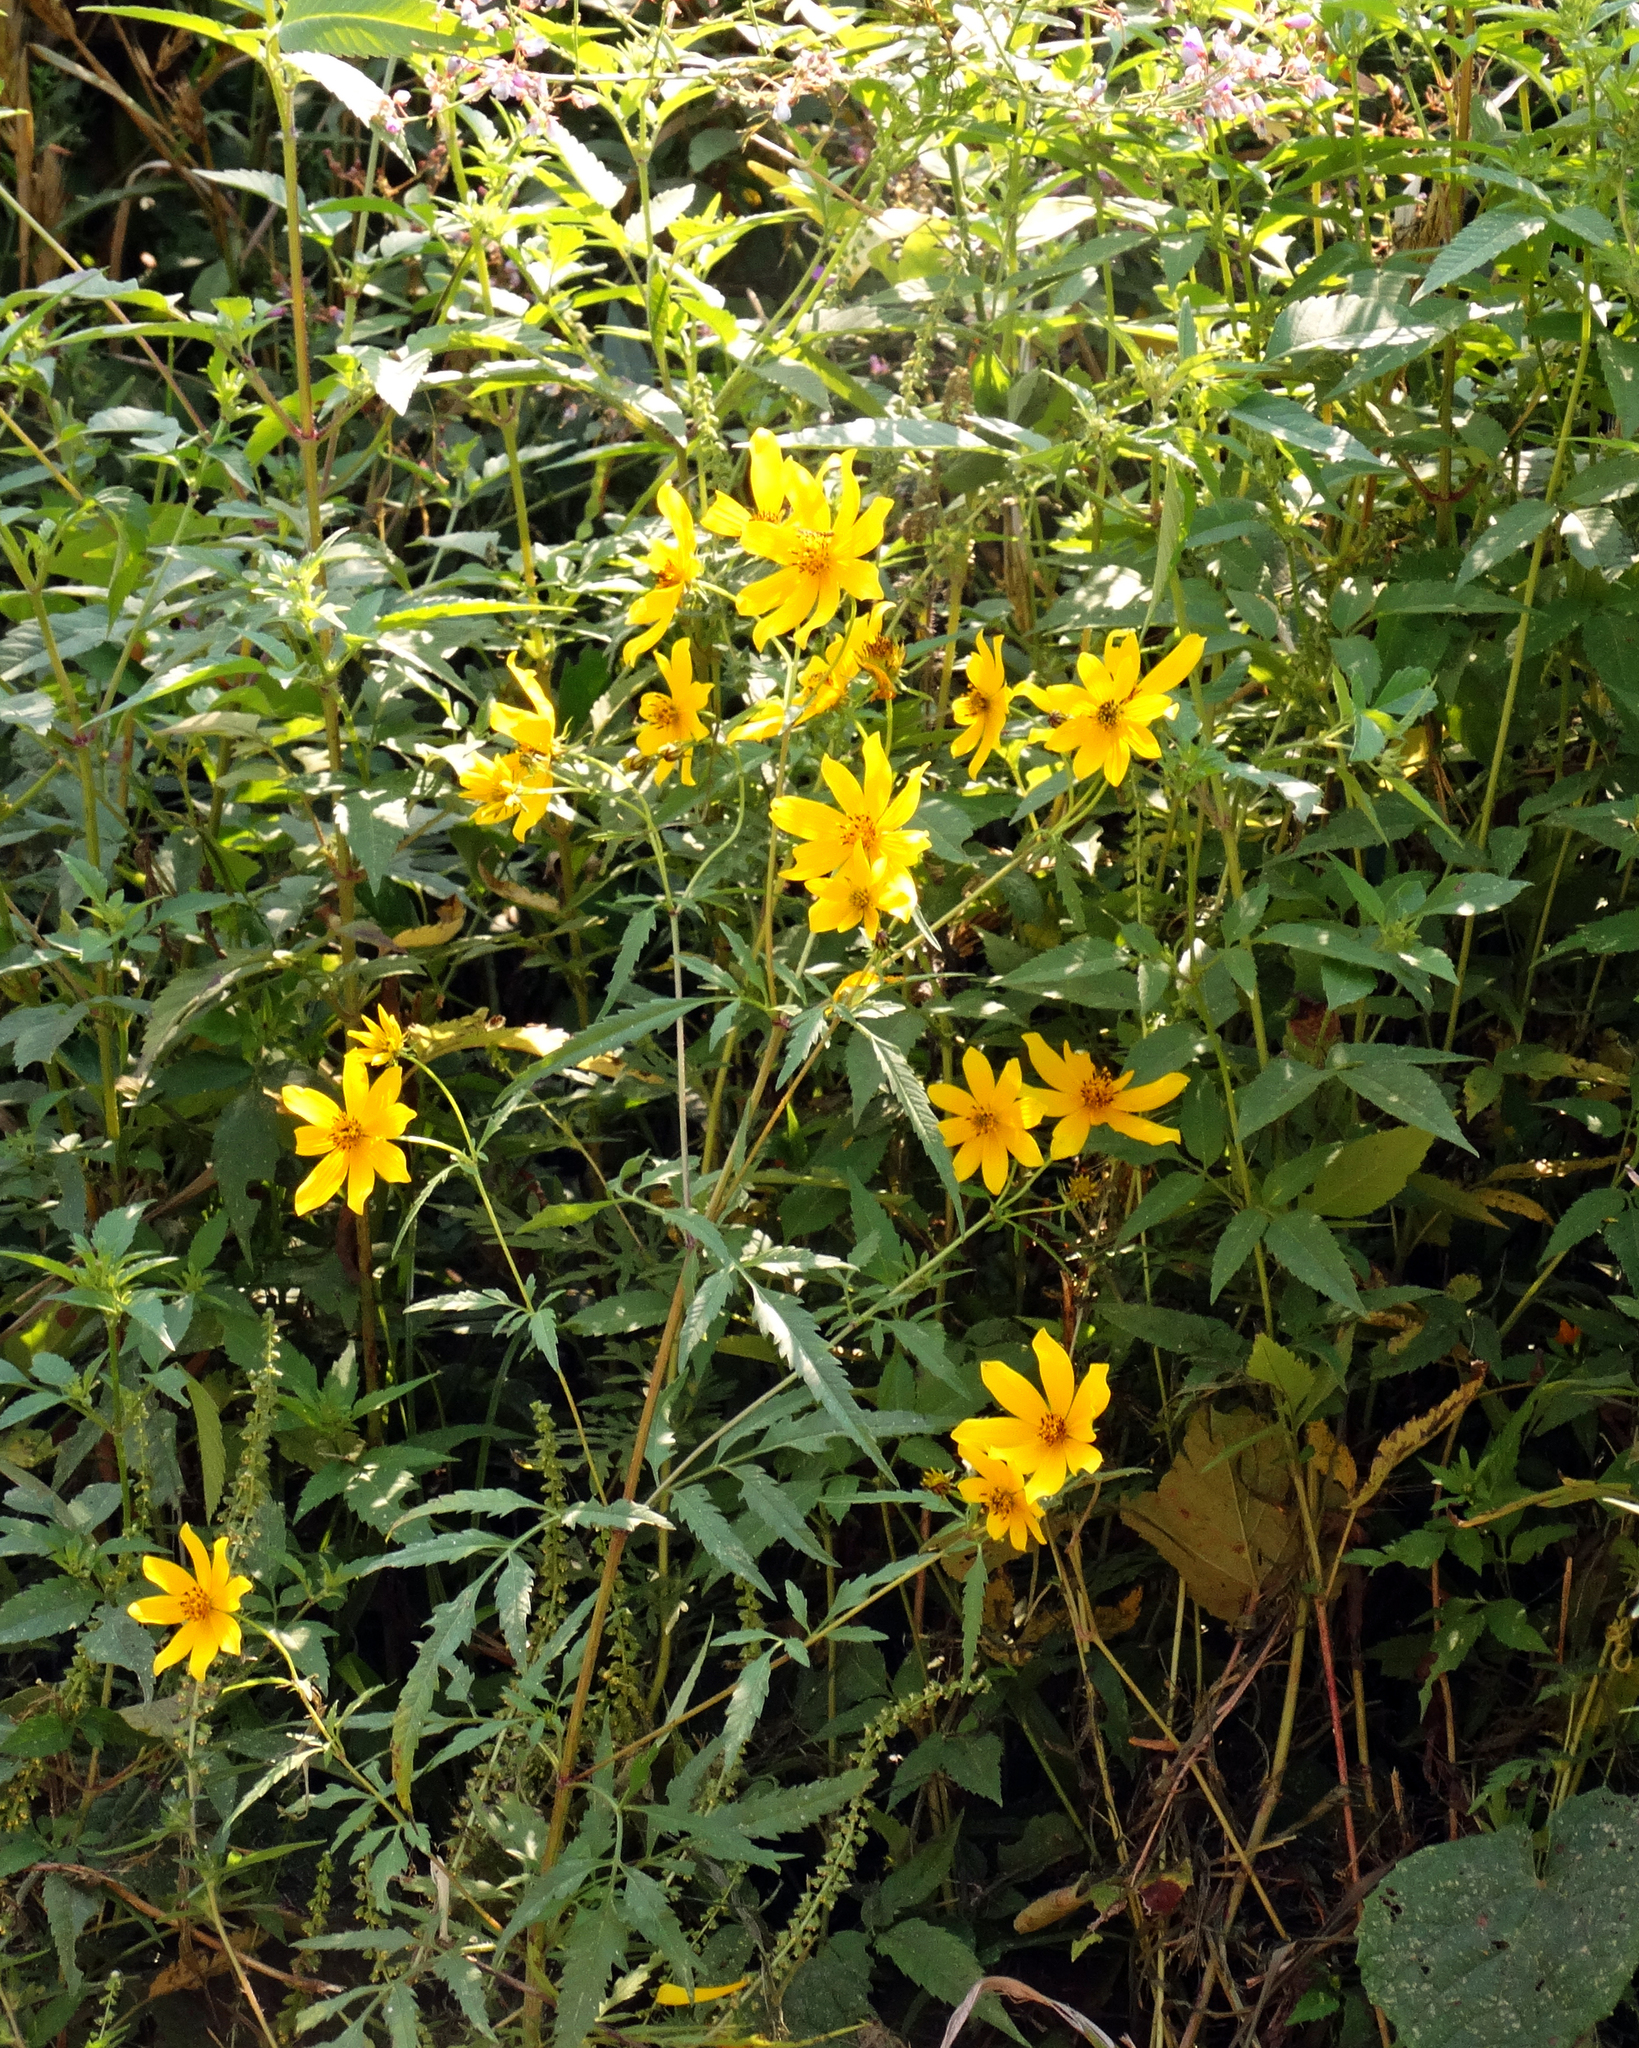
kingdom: Plantae
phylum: Tracheophyta
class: Magnoliopsida
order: Asterales
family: Asteraceae
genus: Bidens
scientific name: Bidens aristosa
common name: Western tickseed
